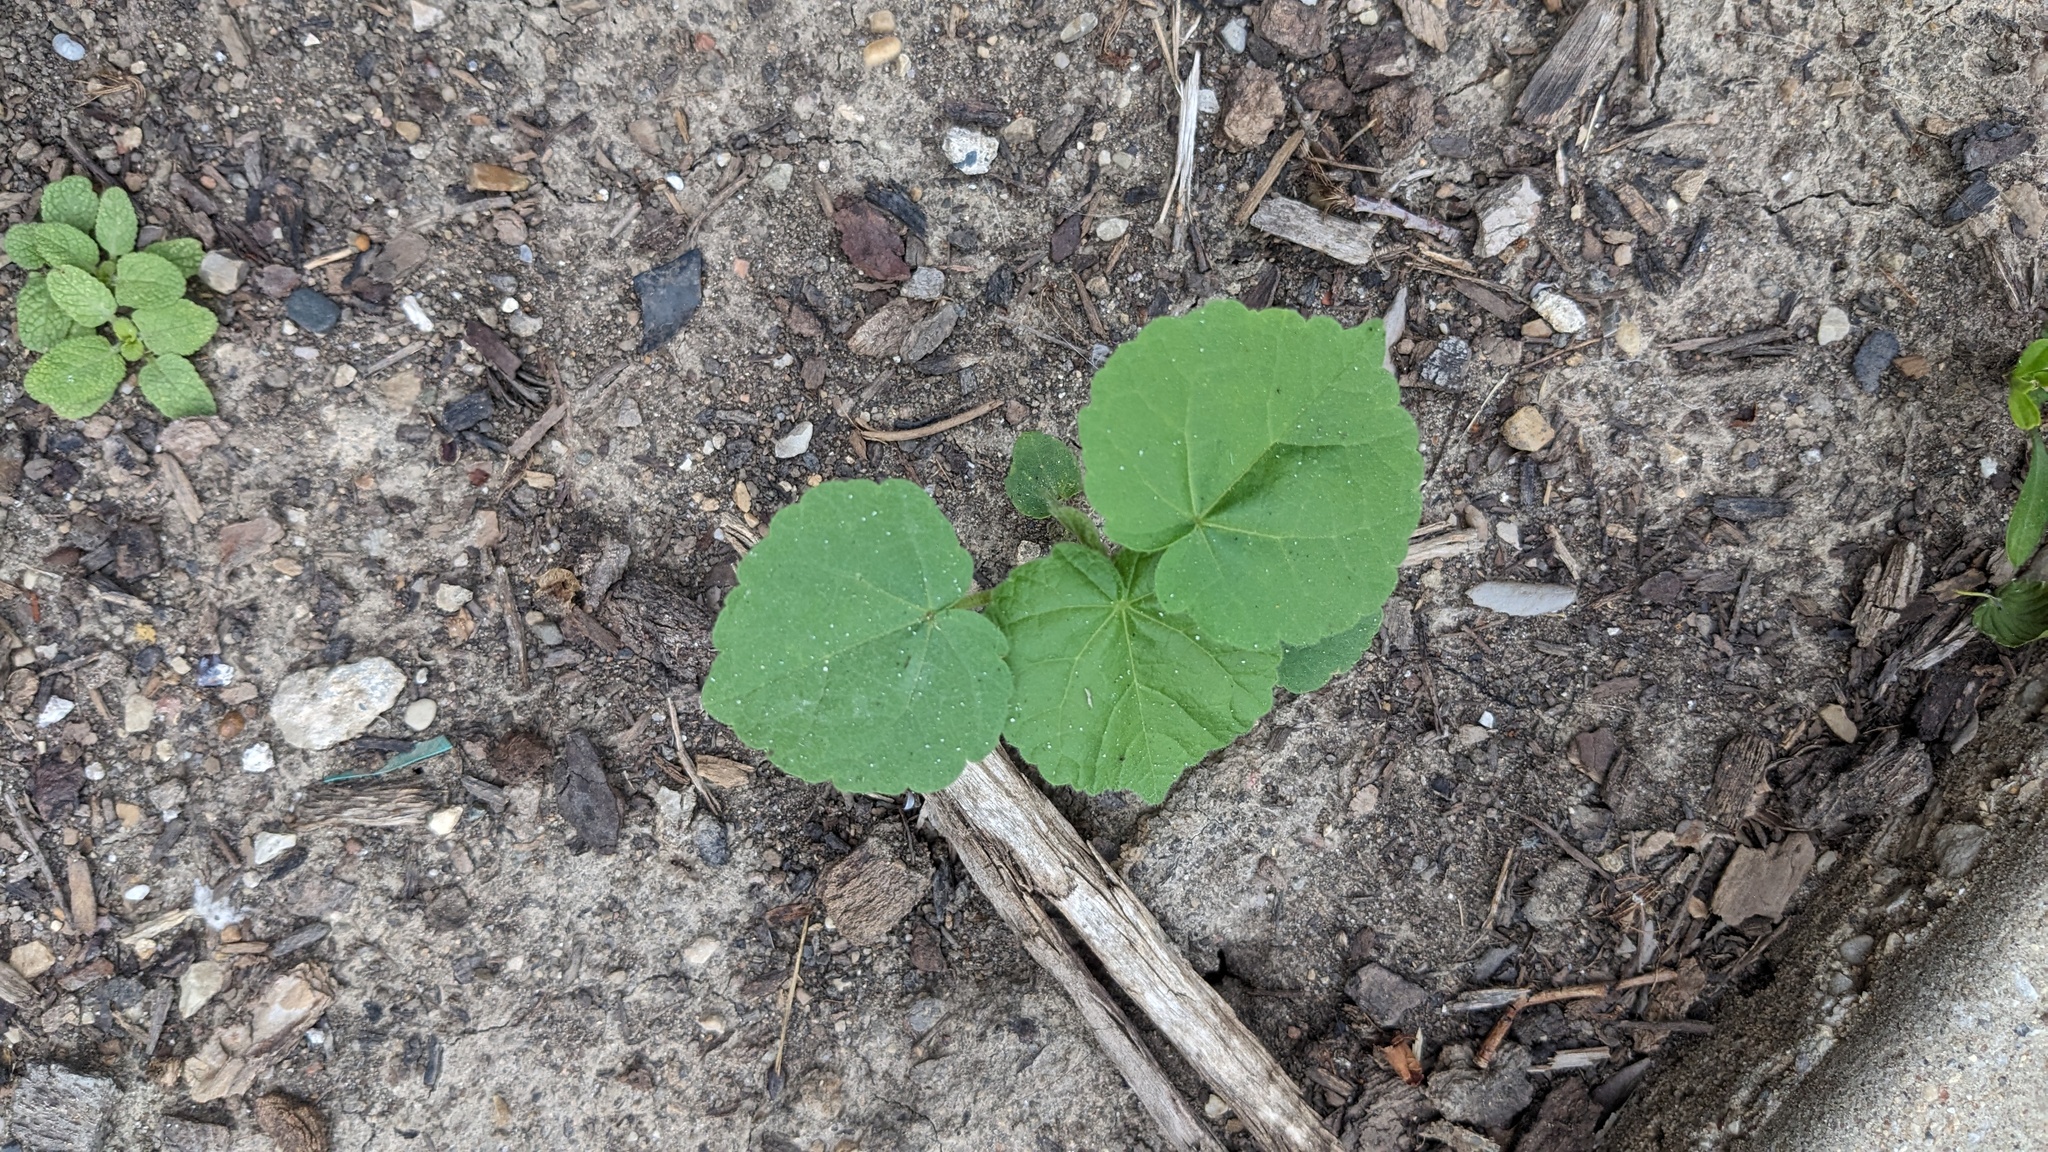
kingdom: Plantae
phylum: Tracheophyta
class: Magnoliopsida
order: Malvales
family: Malvaceae
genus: Abutilon
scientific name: Abutilon theophrasti
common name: Velvetleaf
